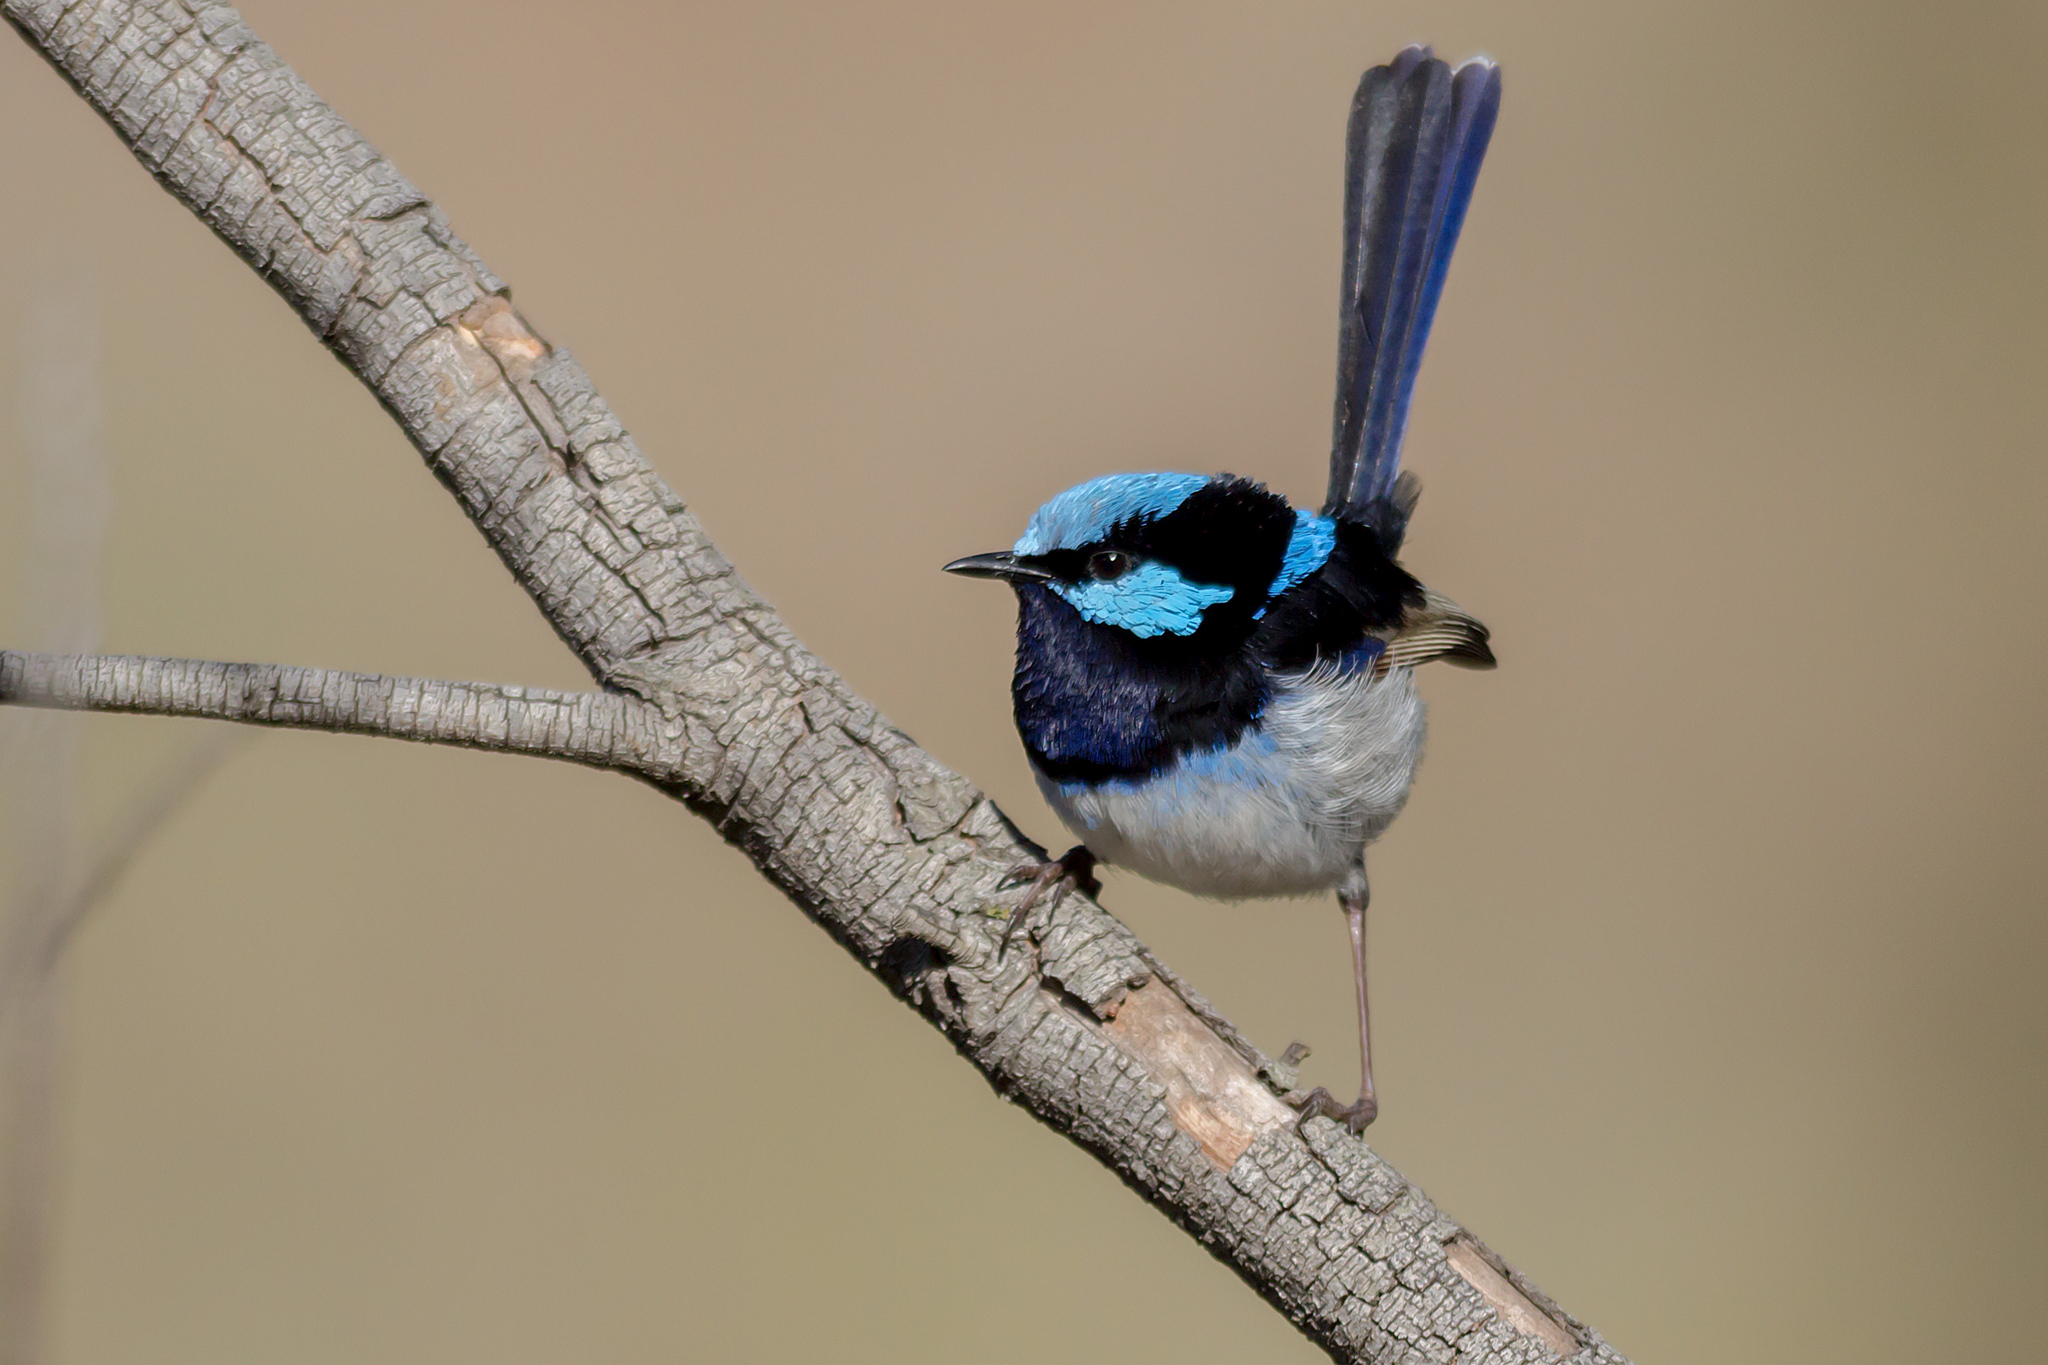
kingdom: Animalia
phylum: Chordata
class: Aves
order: Passeriformes
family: Maluridae
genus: Malurus
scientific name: Malurus cyaneus
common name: Superb fairywren
